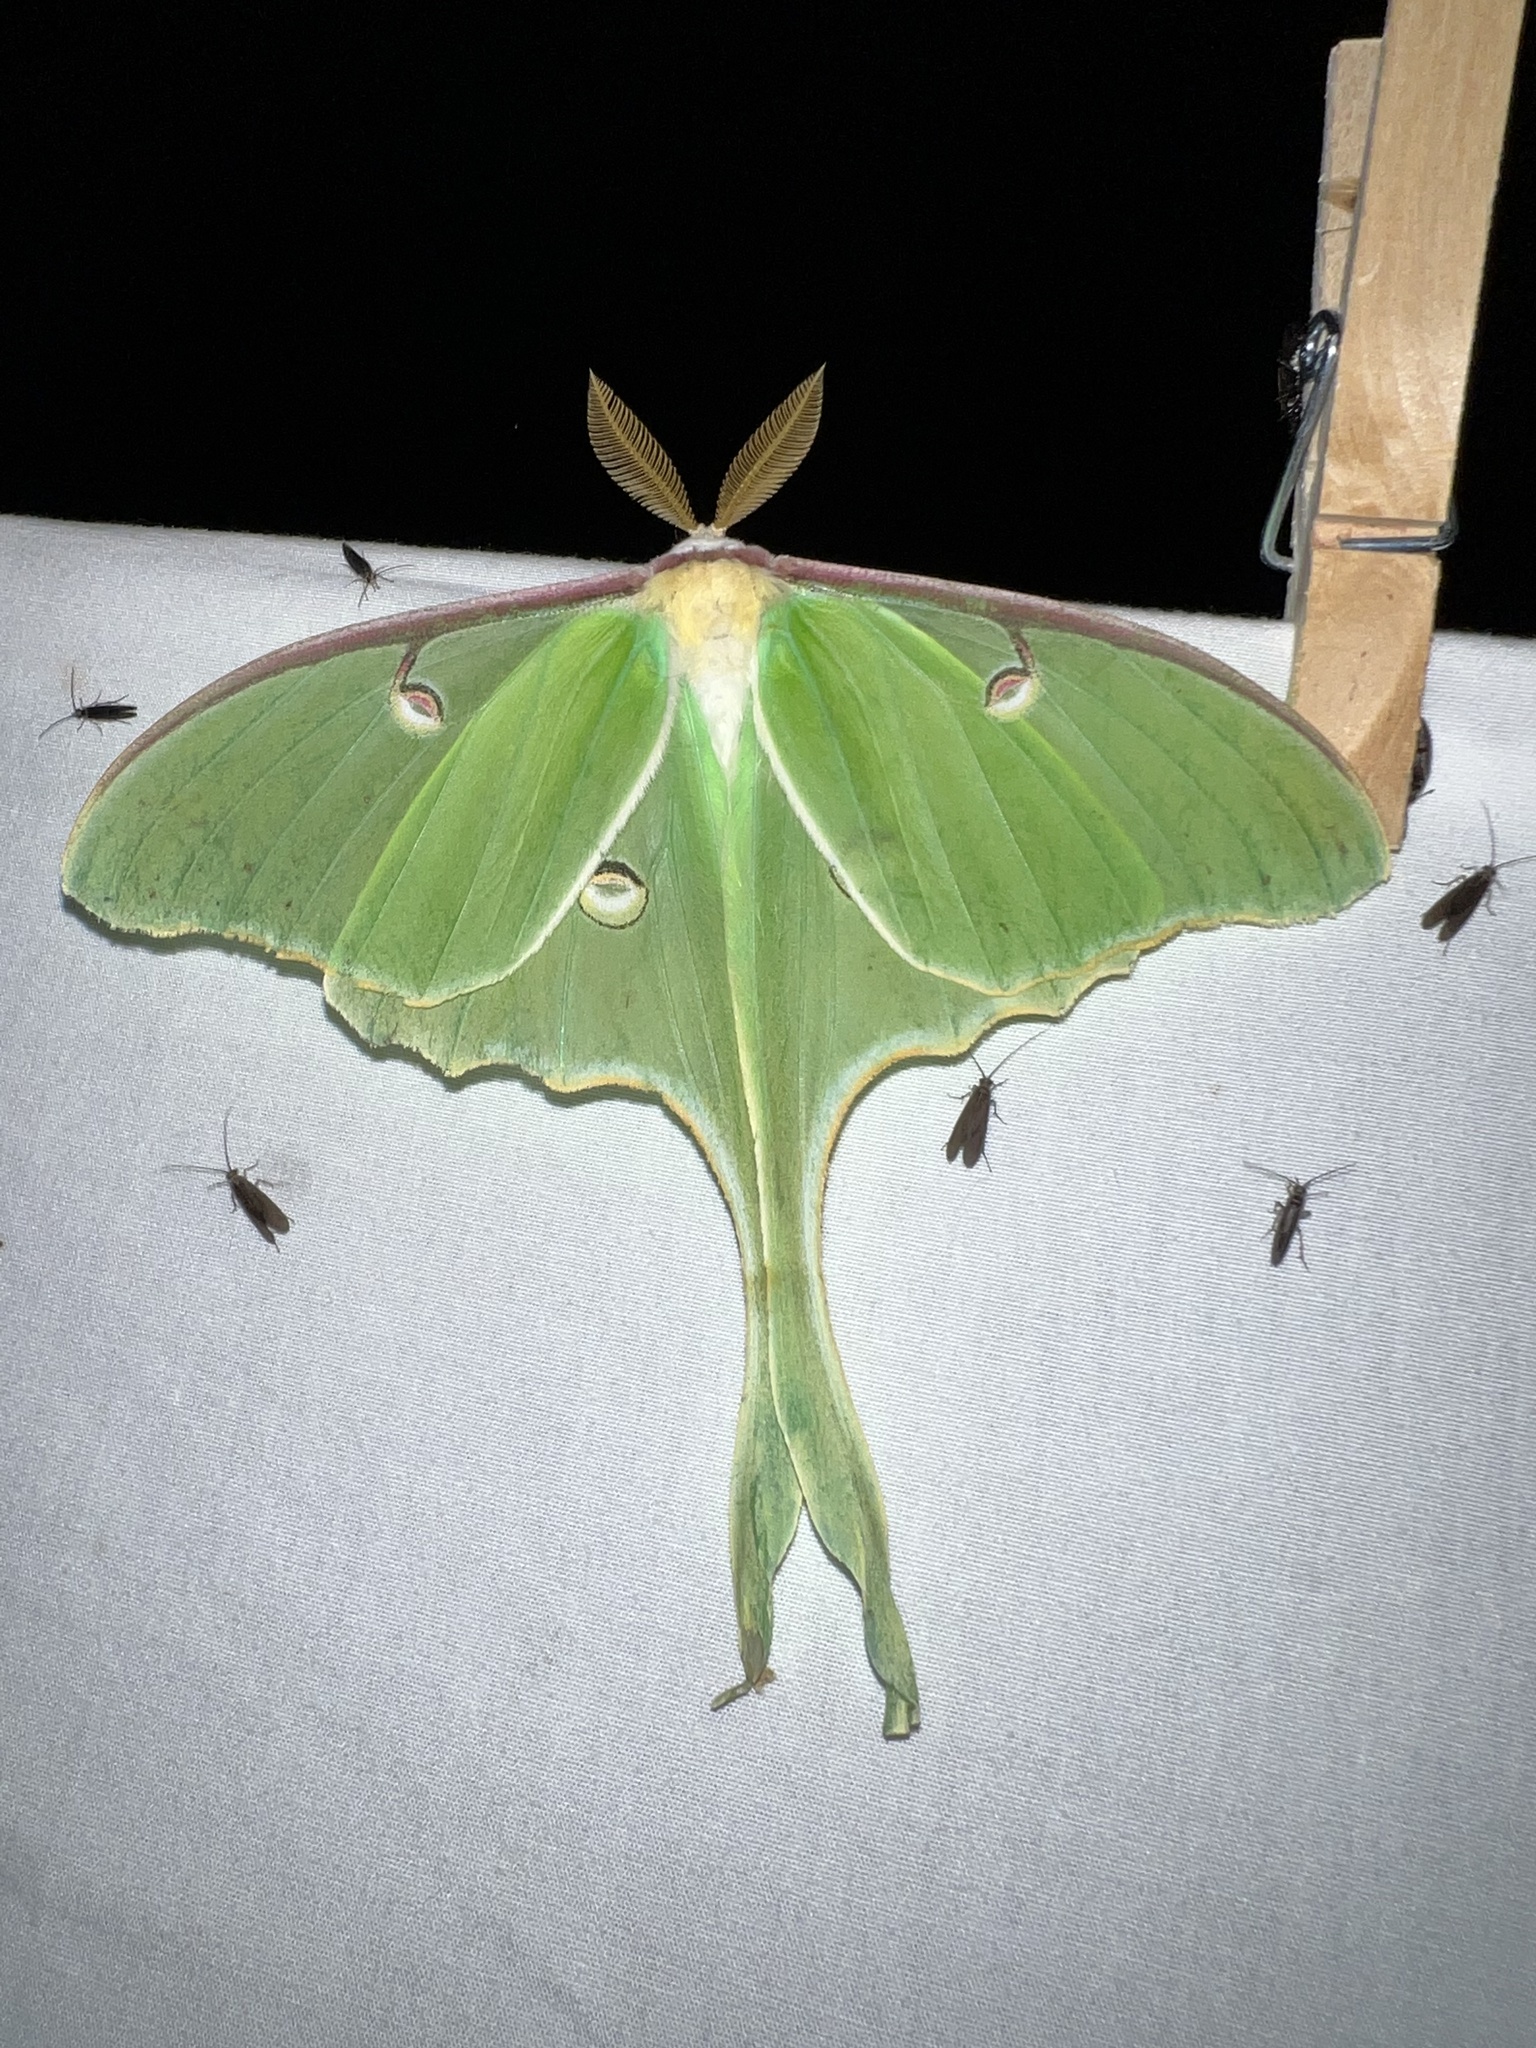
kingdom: Animalia
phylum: Arthropoda
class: Insecta
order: Lepidoptera
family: Saturniidae
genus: Actias
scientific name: Actias luna
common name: Luna moth
